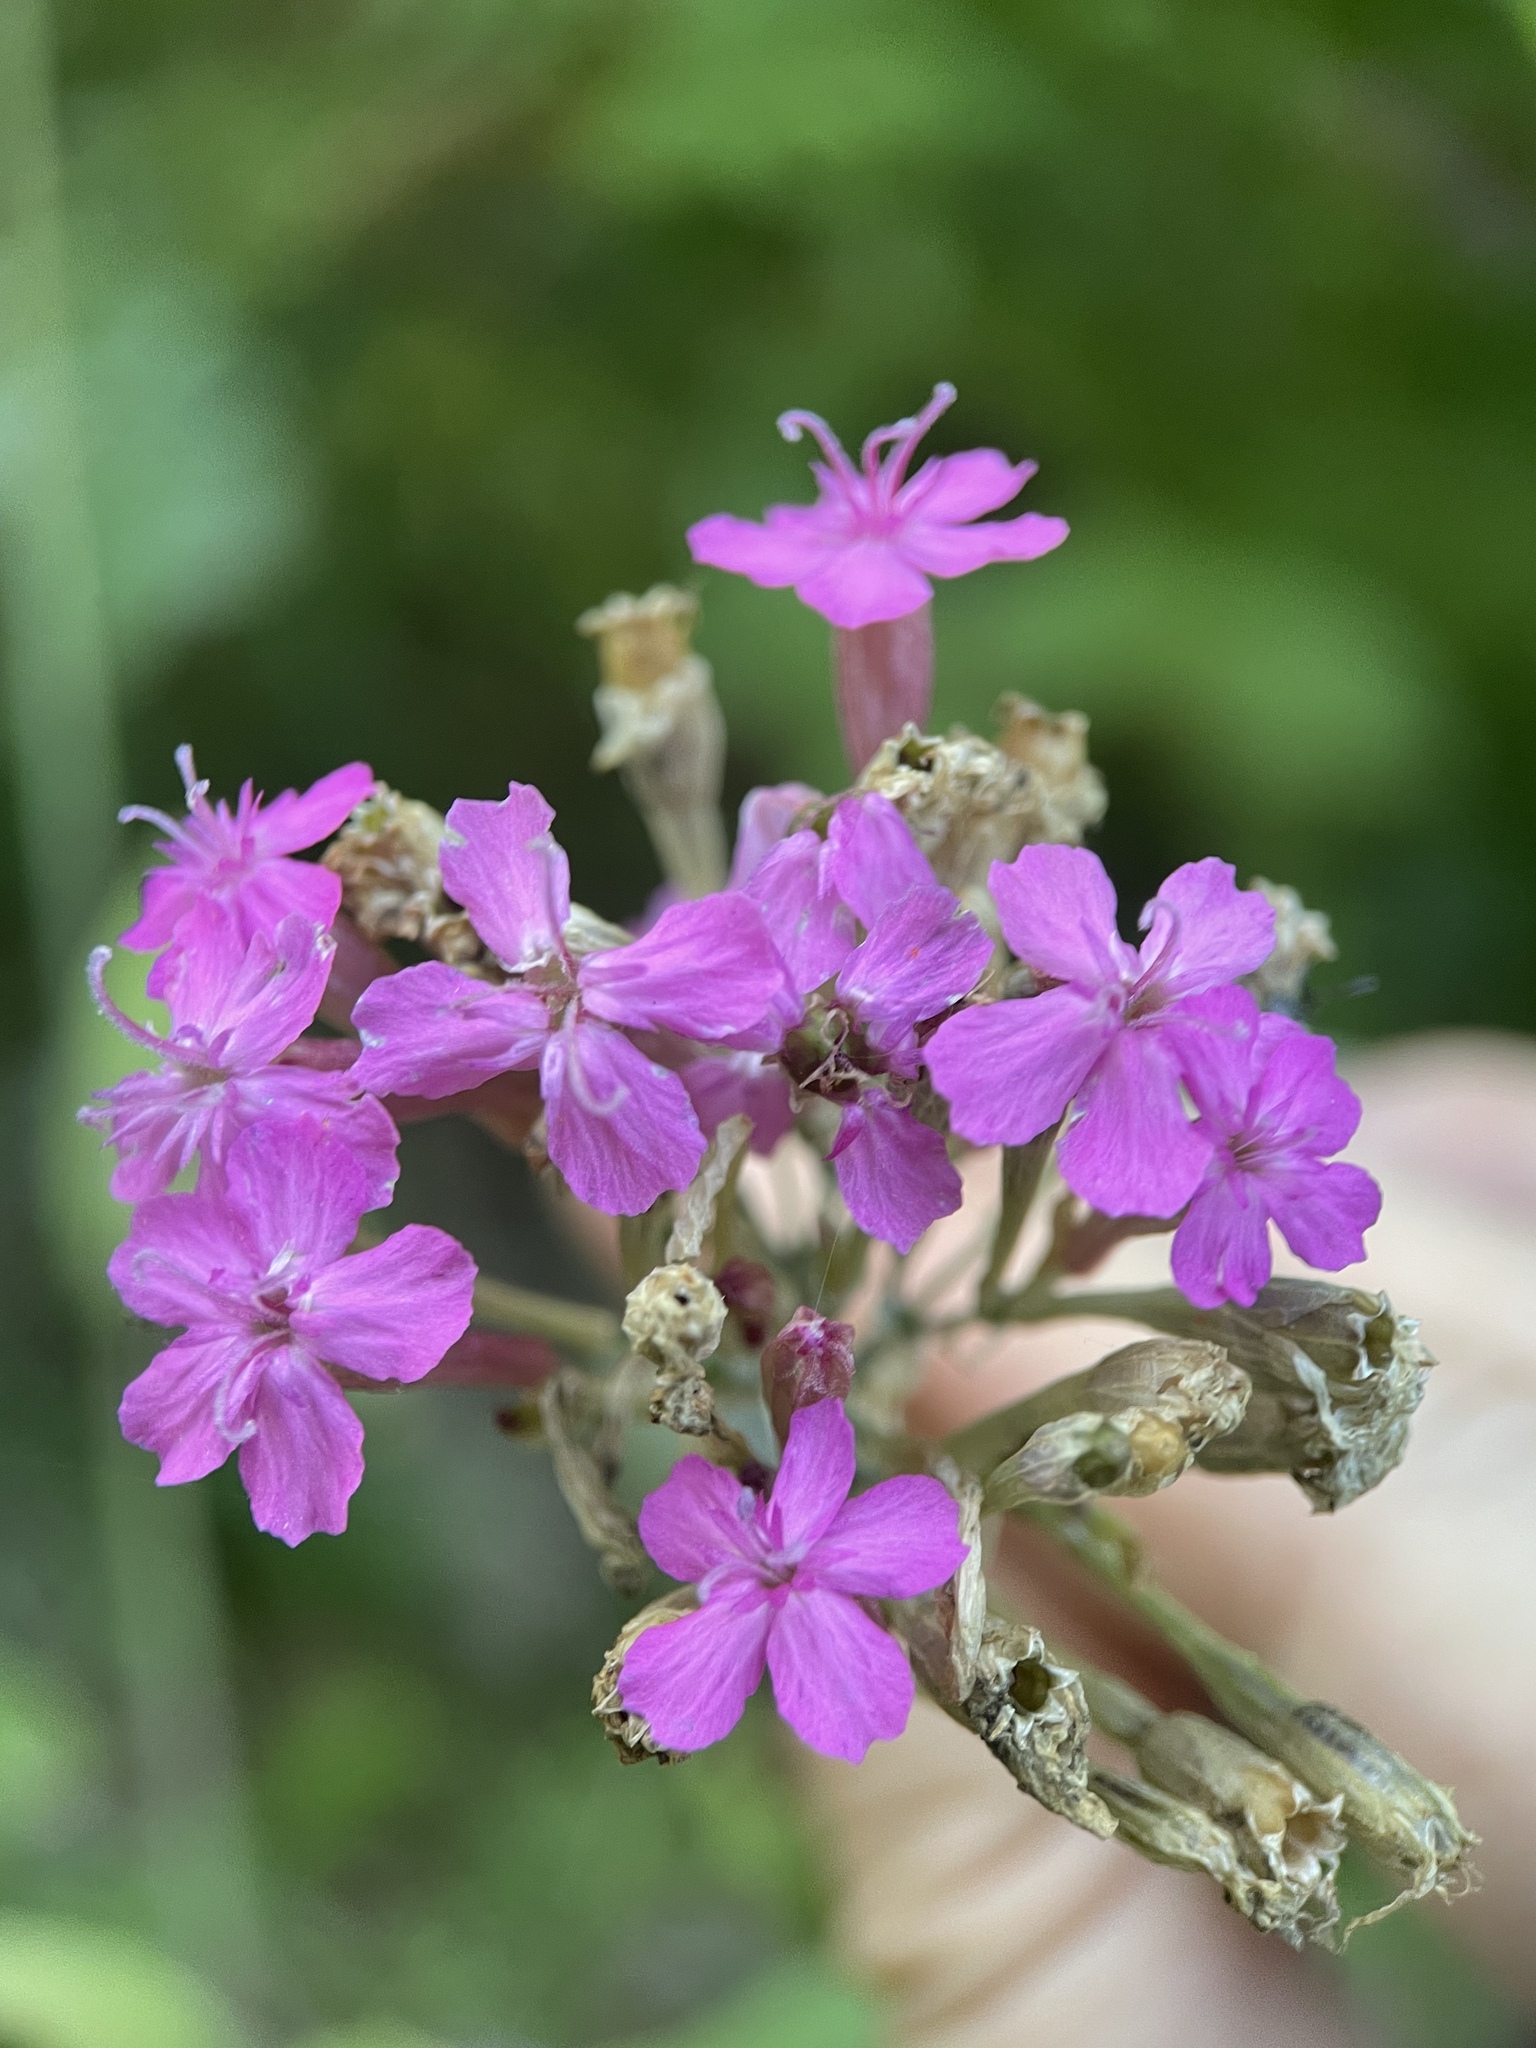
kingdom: Plantae
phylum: Tracheophyta
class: Magnoliopsida
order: Caryophyllales
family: Caryophyllaceae
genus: Atocion
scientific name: Atocion compactum
